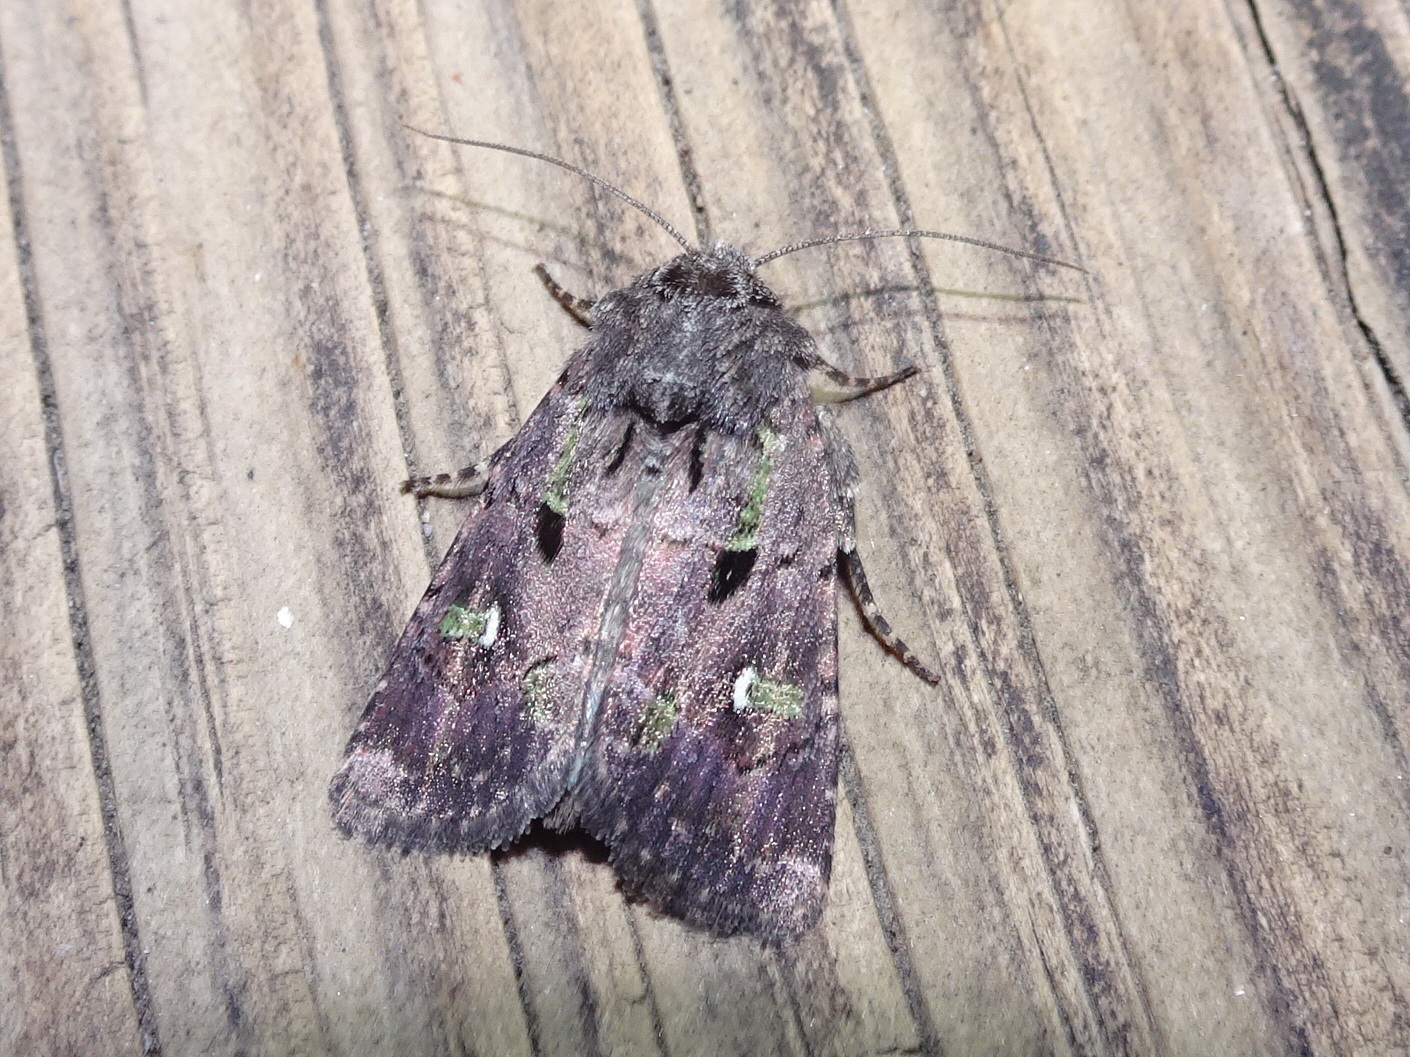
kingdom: Animalia
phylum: Arthropoda
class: Insecta
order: Lepidoptera
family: Noctuidae
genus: Lacinipolia
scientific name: Lacinipolia renigera
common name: Kidney-spotted minor
